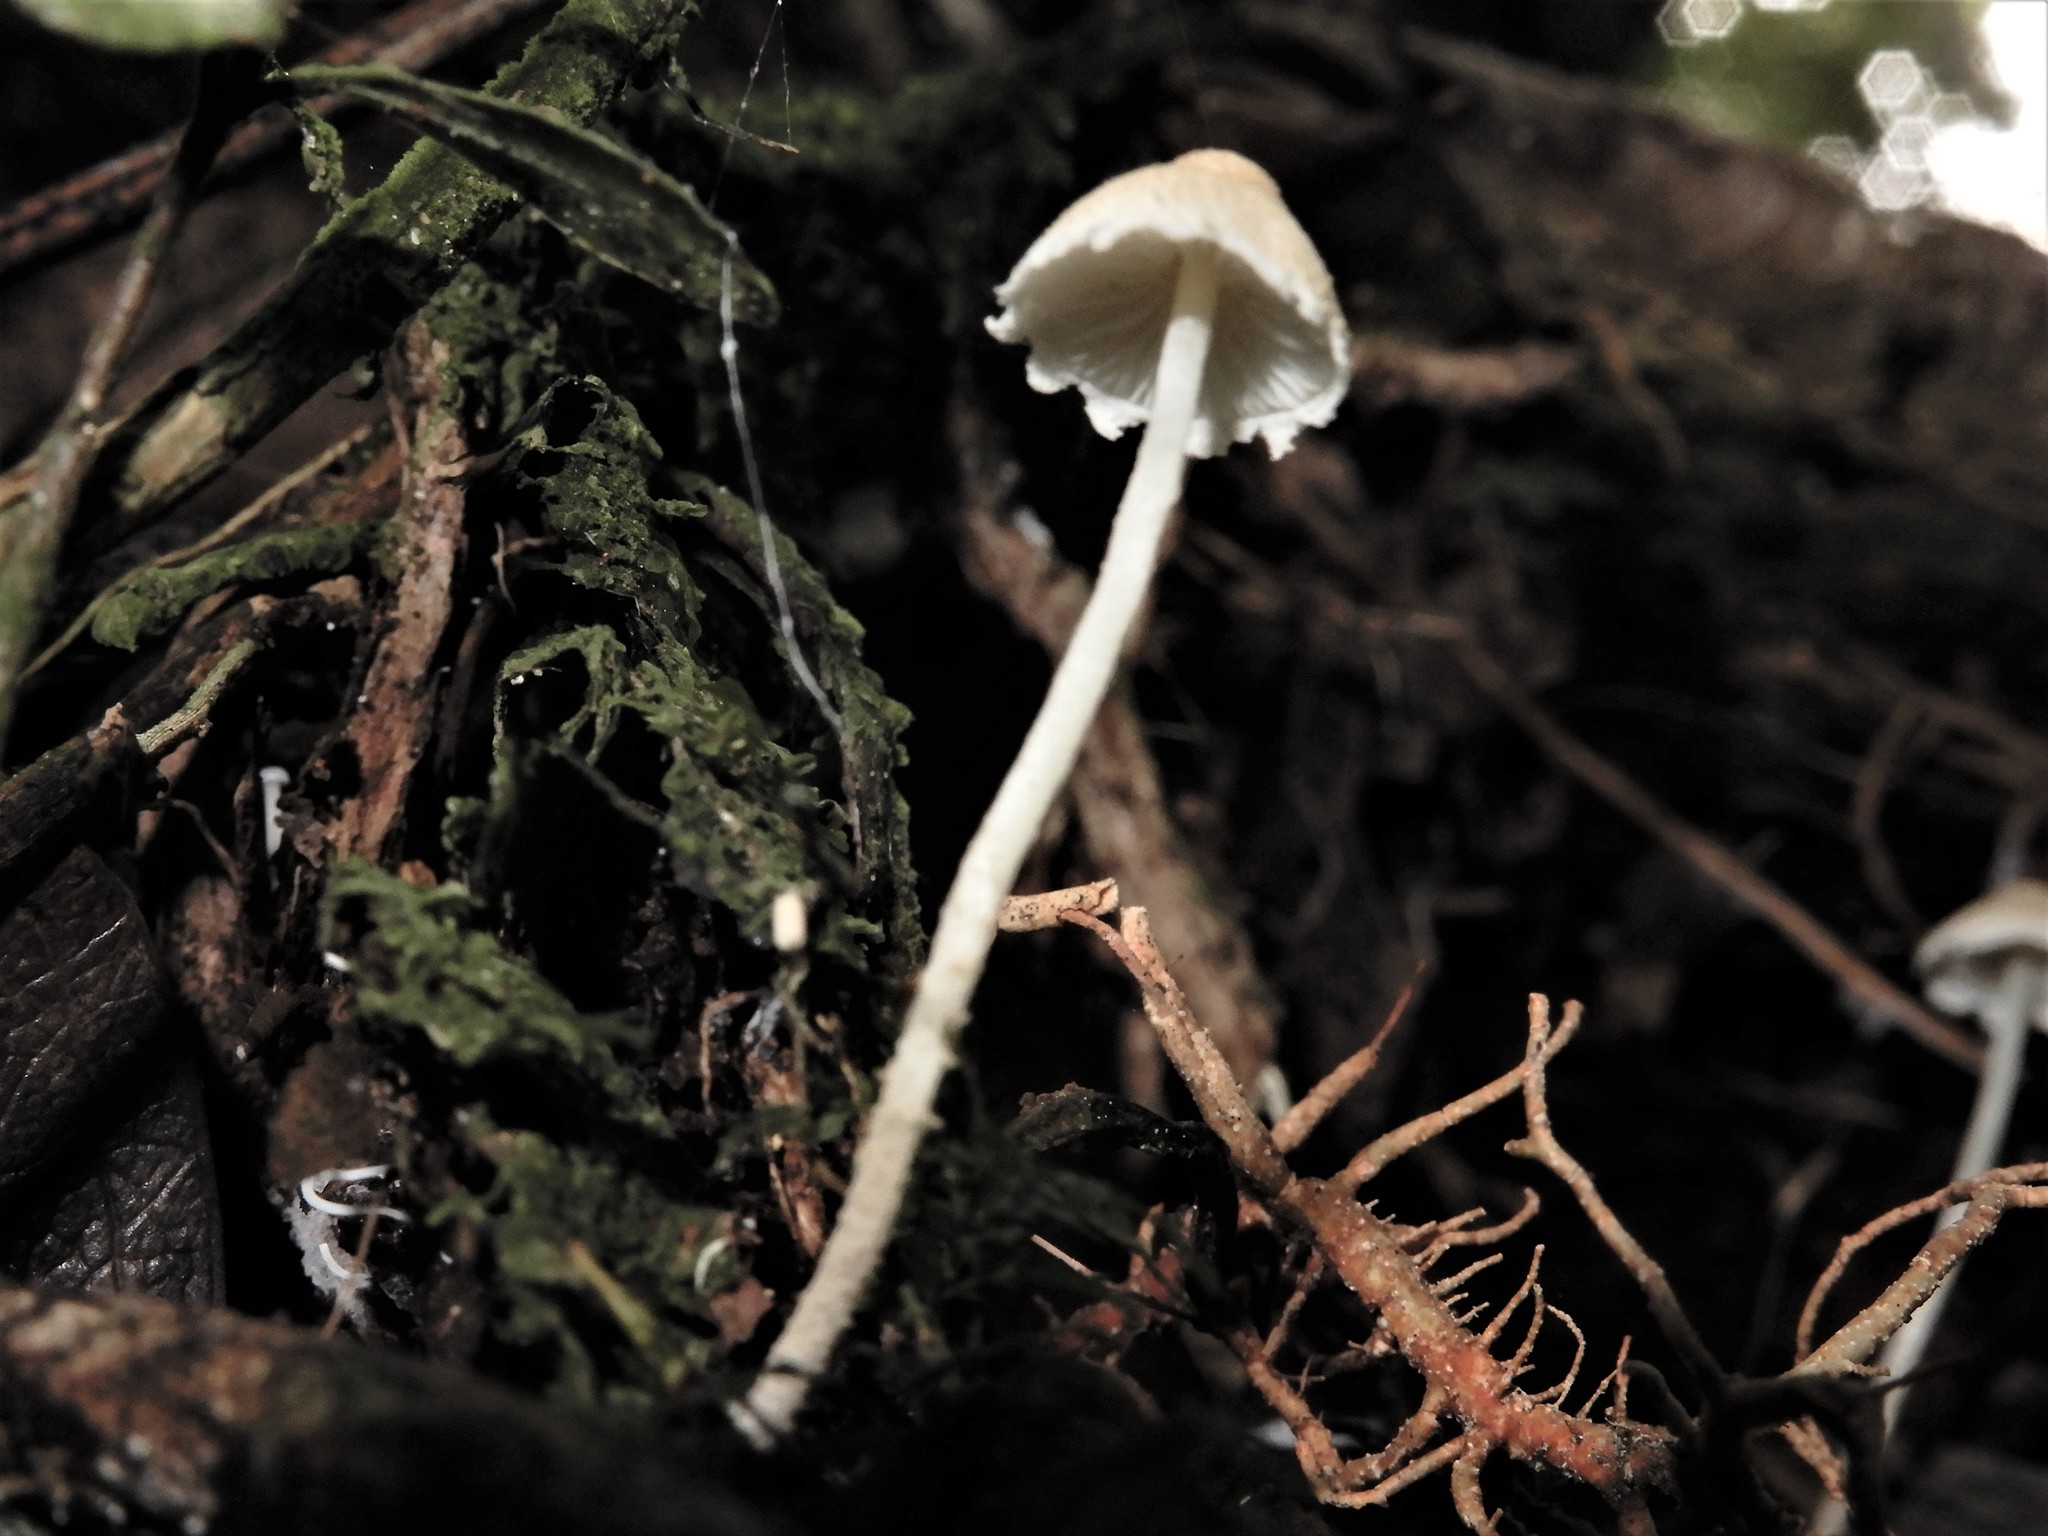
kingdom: Fungi
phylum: Basidiomycota
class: Agaricomycetes
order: Agaricales
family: Agaricaceae
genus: Cystolepiota
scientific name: Cystolepiota
